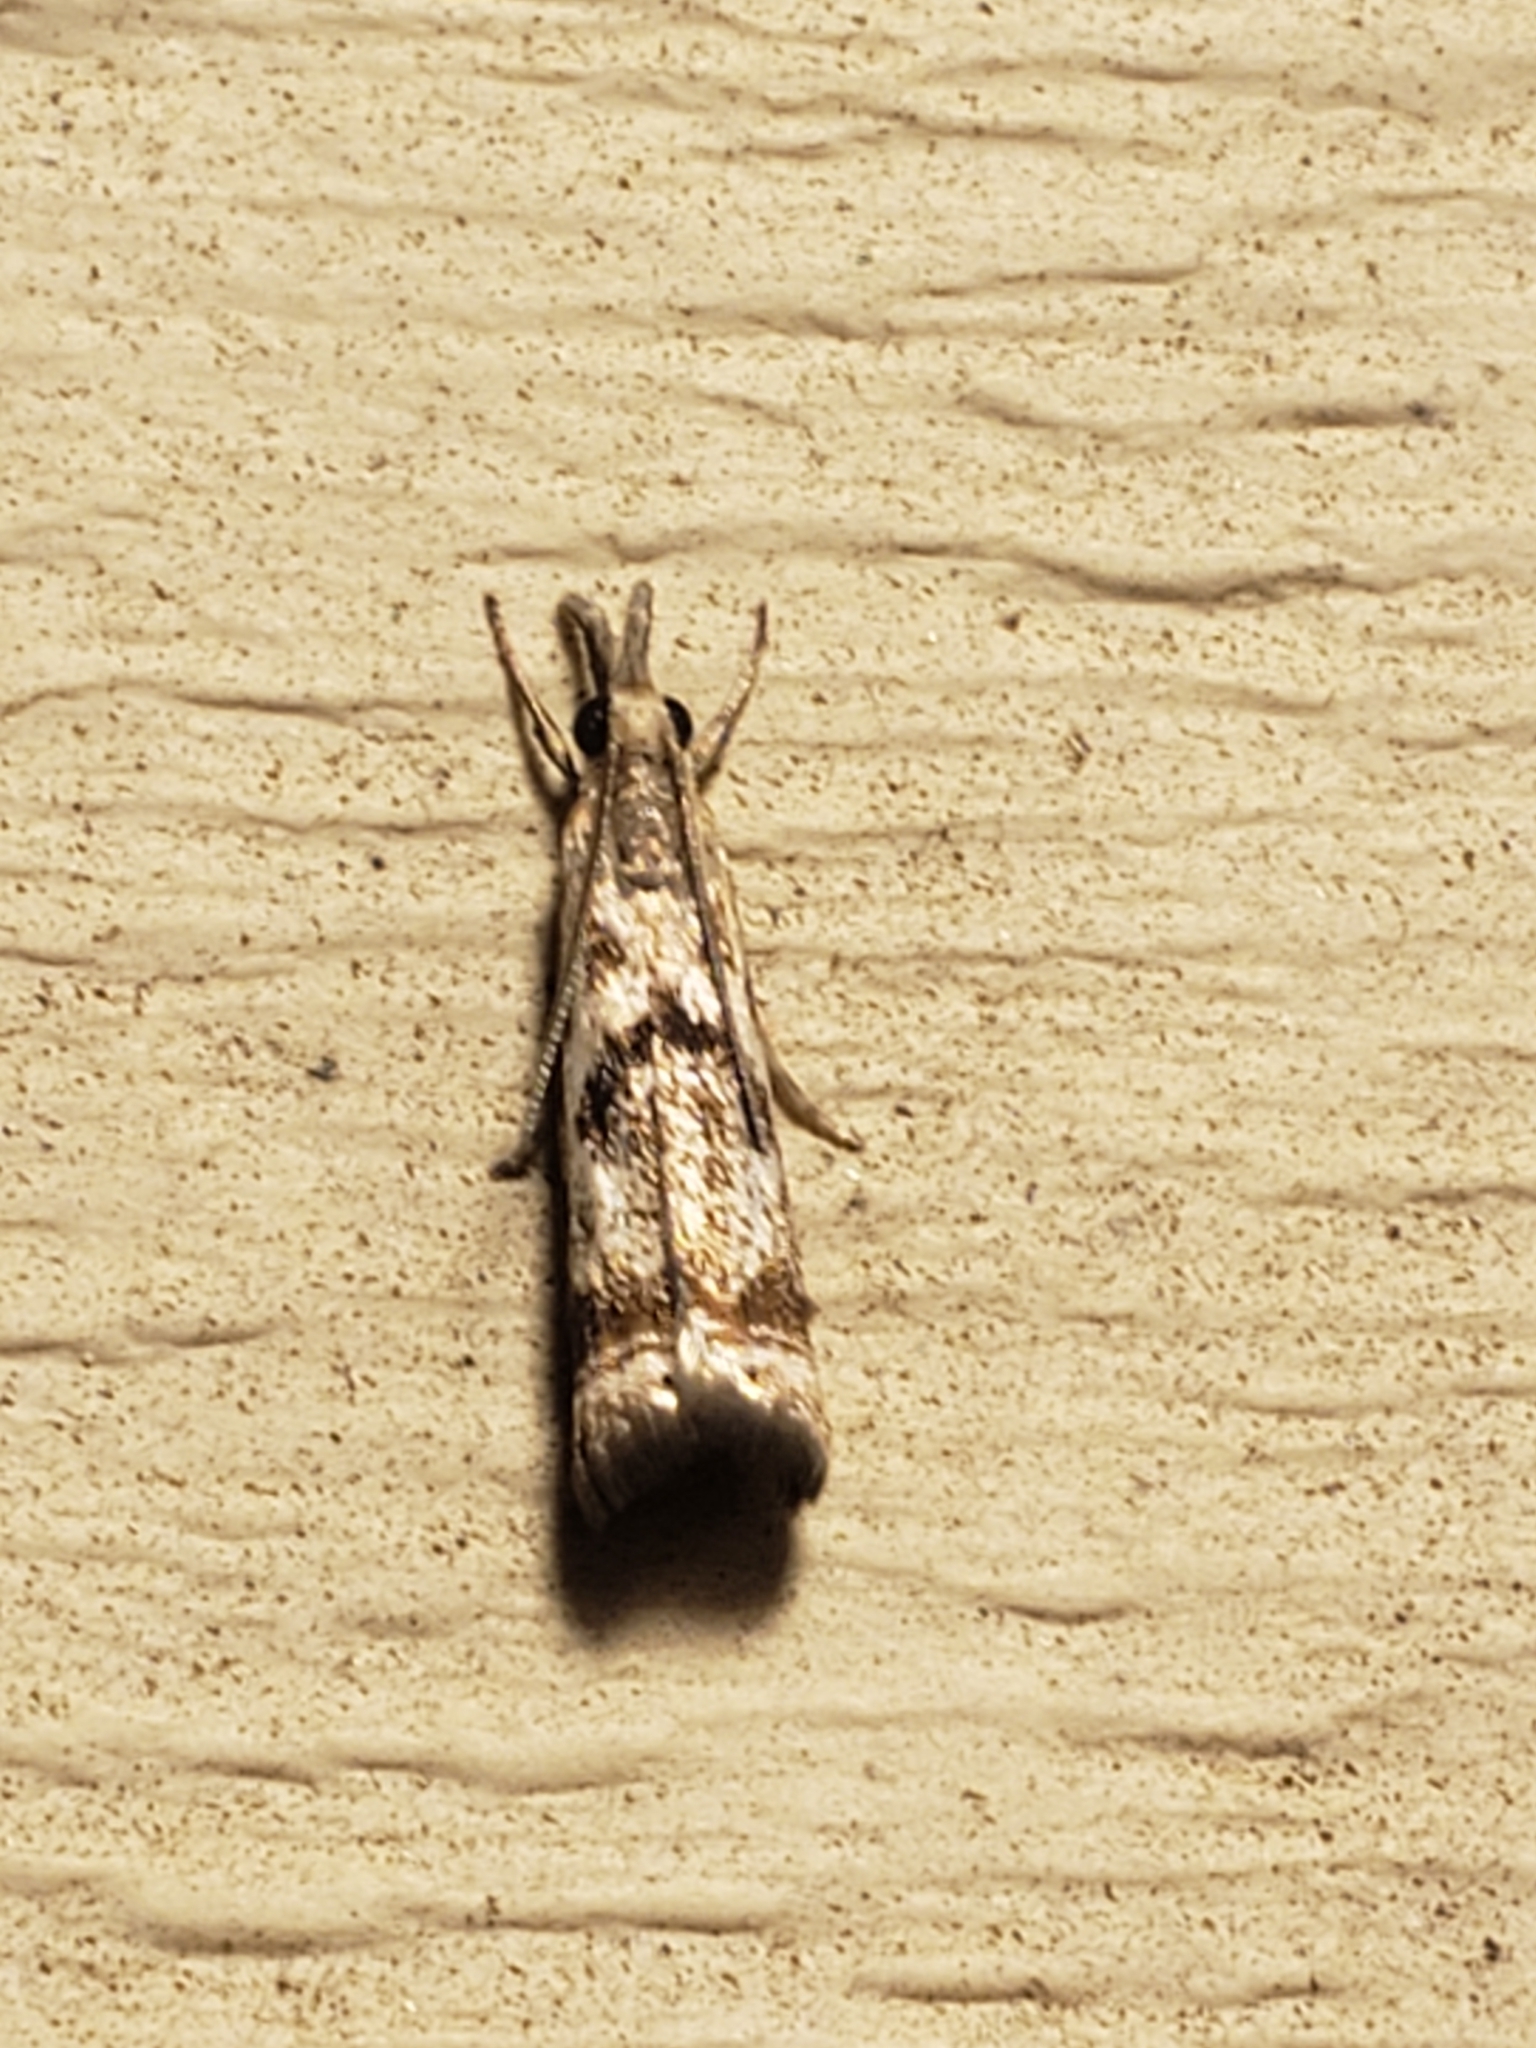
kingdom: Animalia
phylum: Arthropoda
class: Insecta
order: Lepidoptera
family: Crambidae
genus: Microcrambus
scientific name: Microcrambus elegans
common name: Elegant grass-veneer
